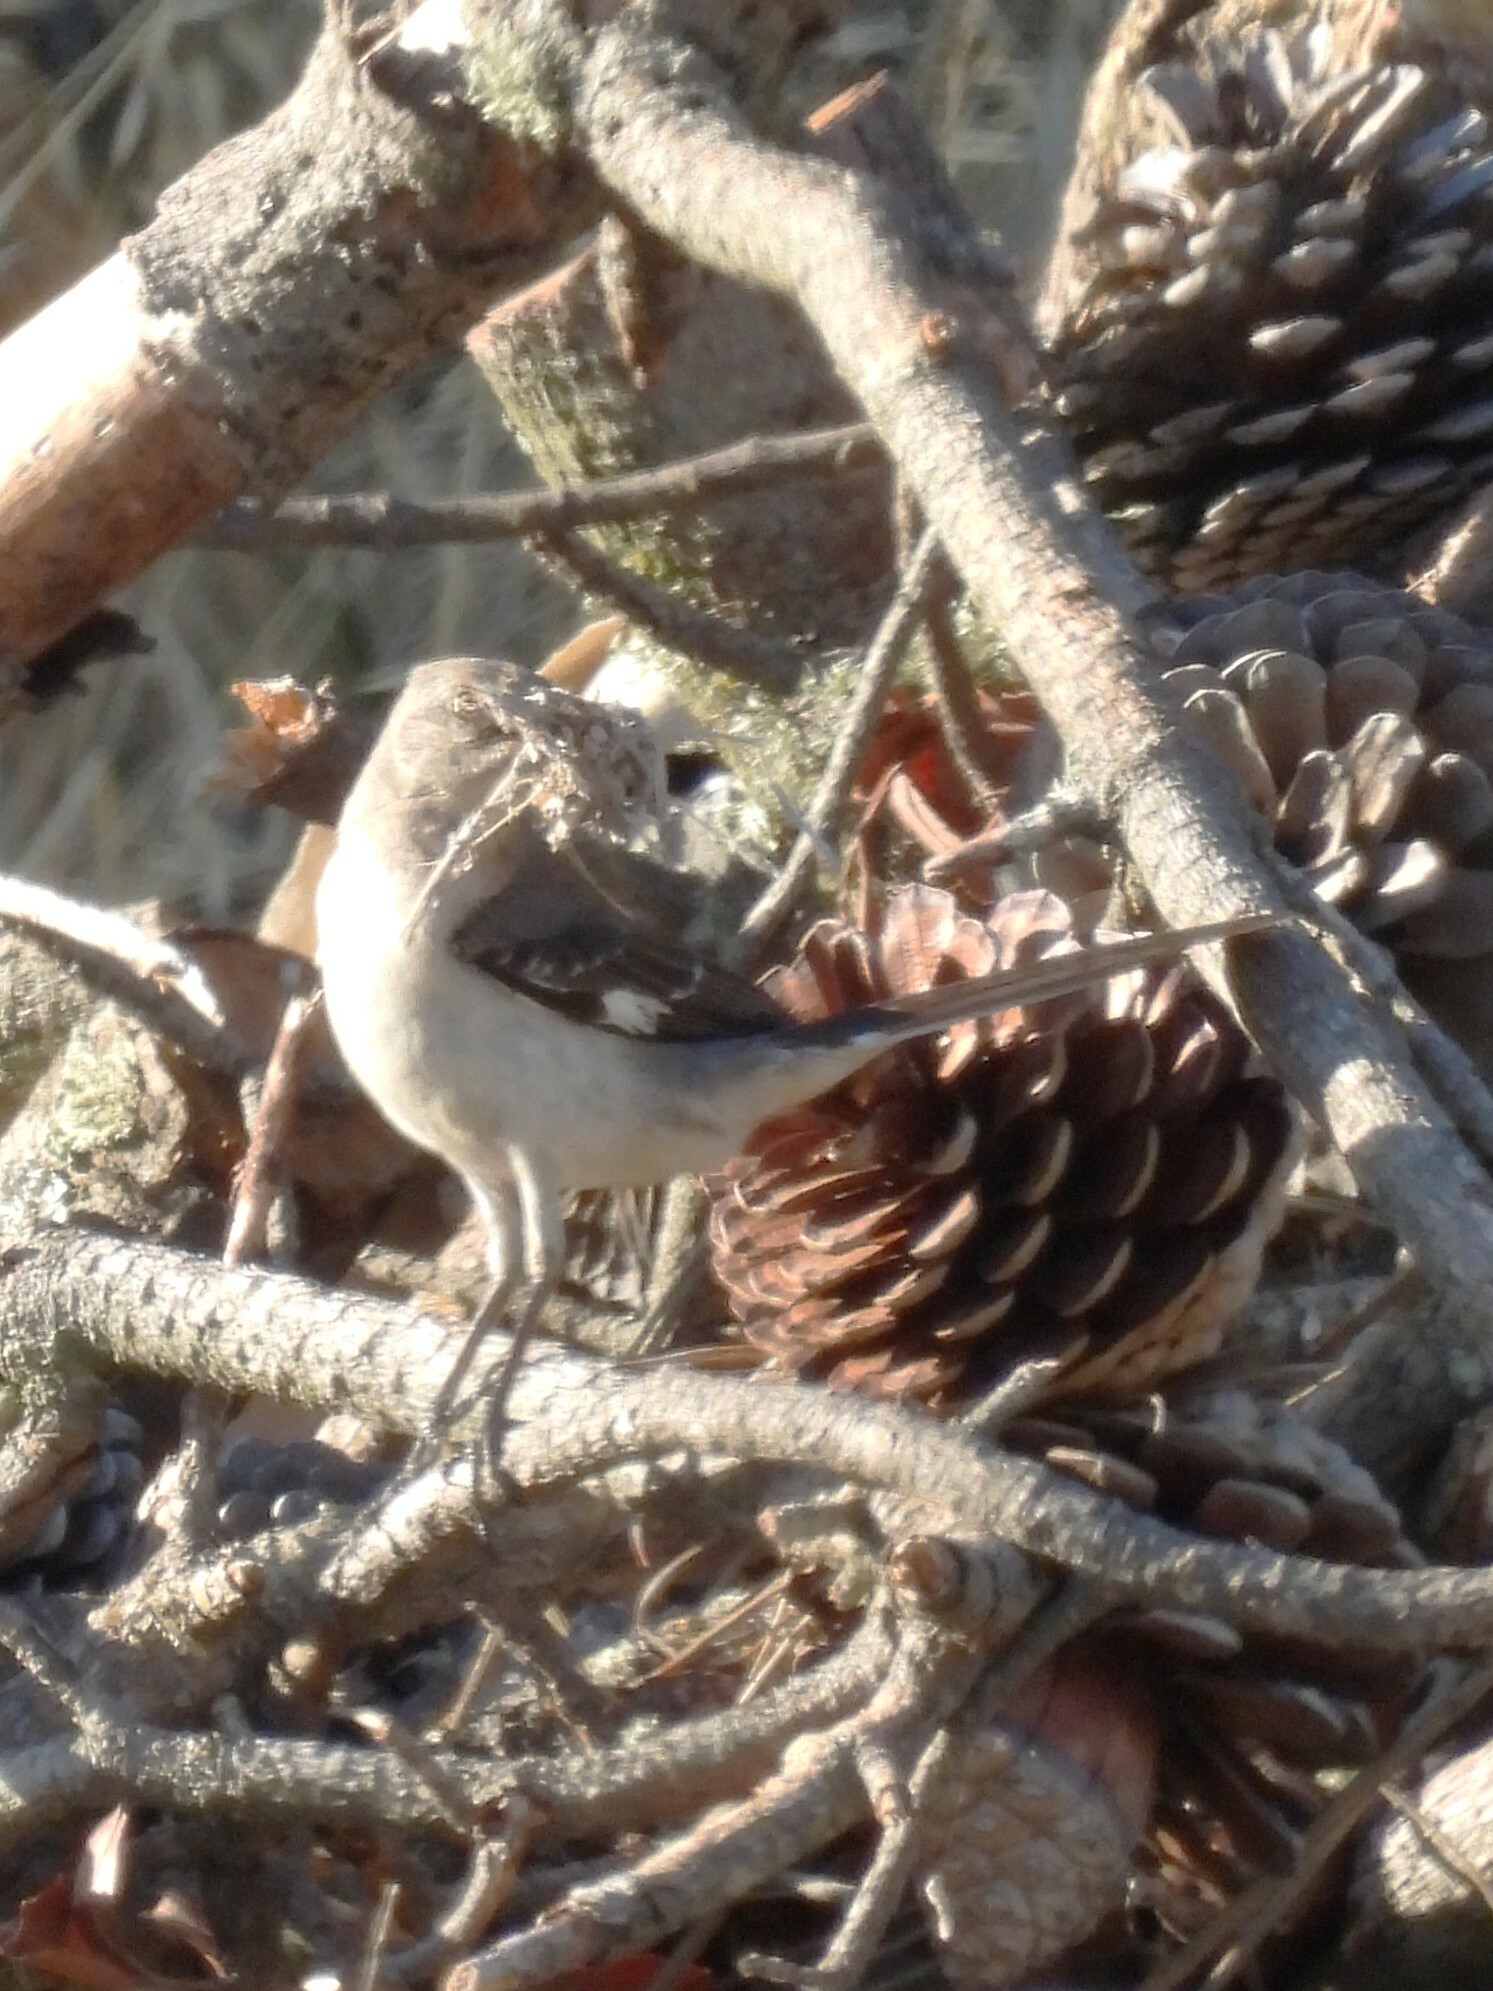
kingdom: Animalia
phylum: Chordata
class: Aves
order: Passeriformes
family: Mimidae
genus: Mimus
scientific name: Mimus polyglottos
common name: Northern mockingbird
